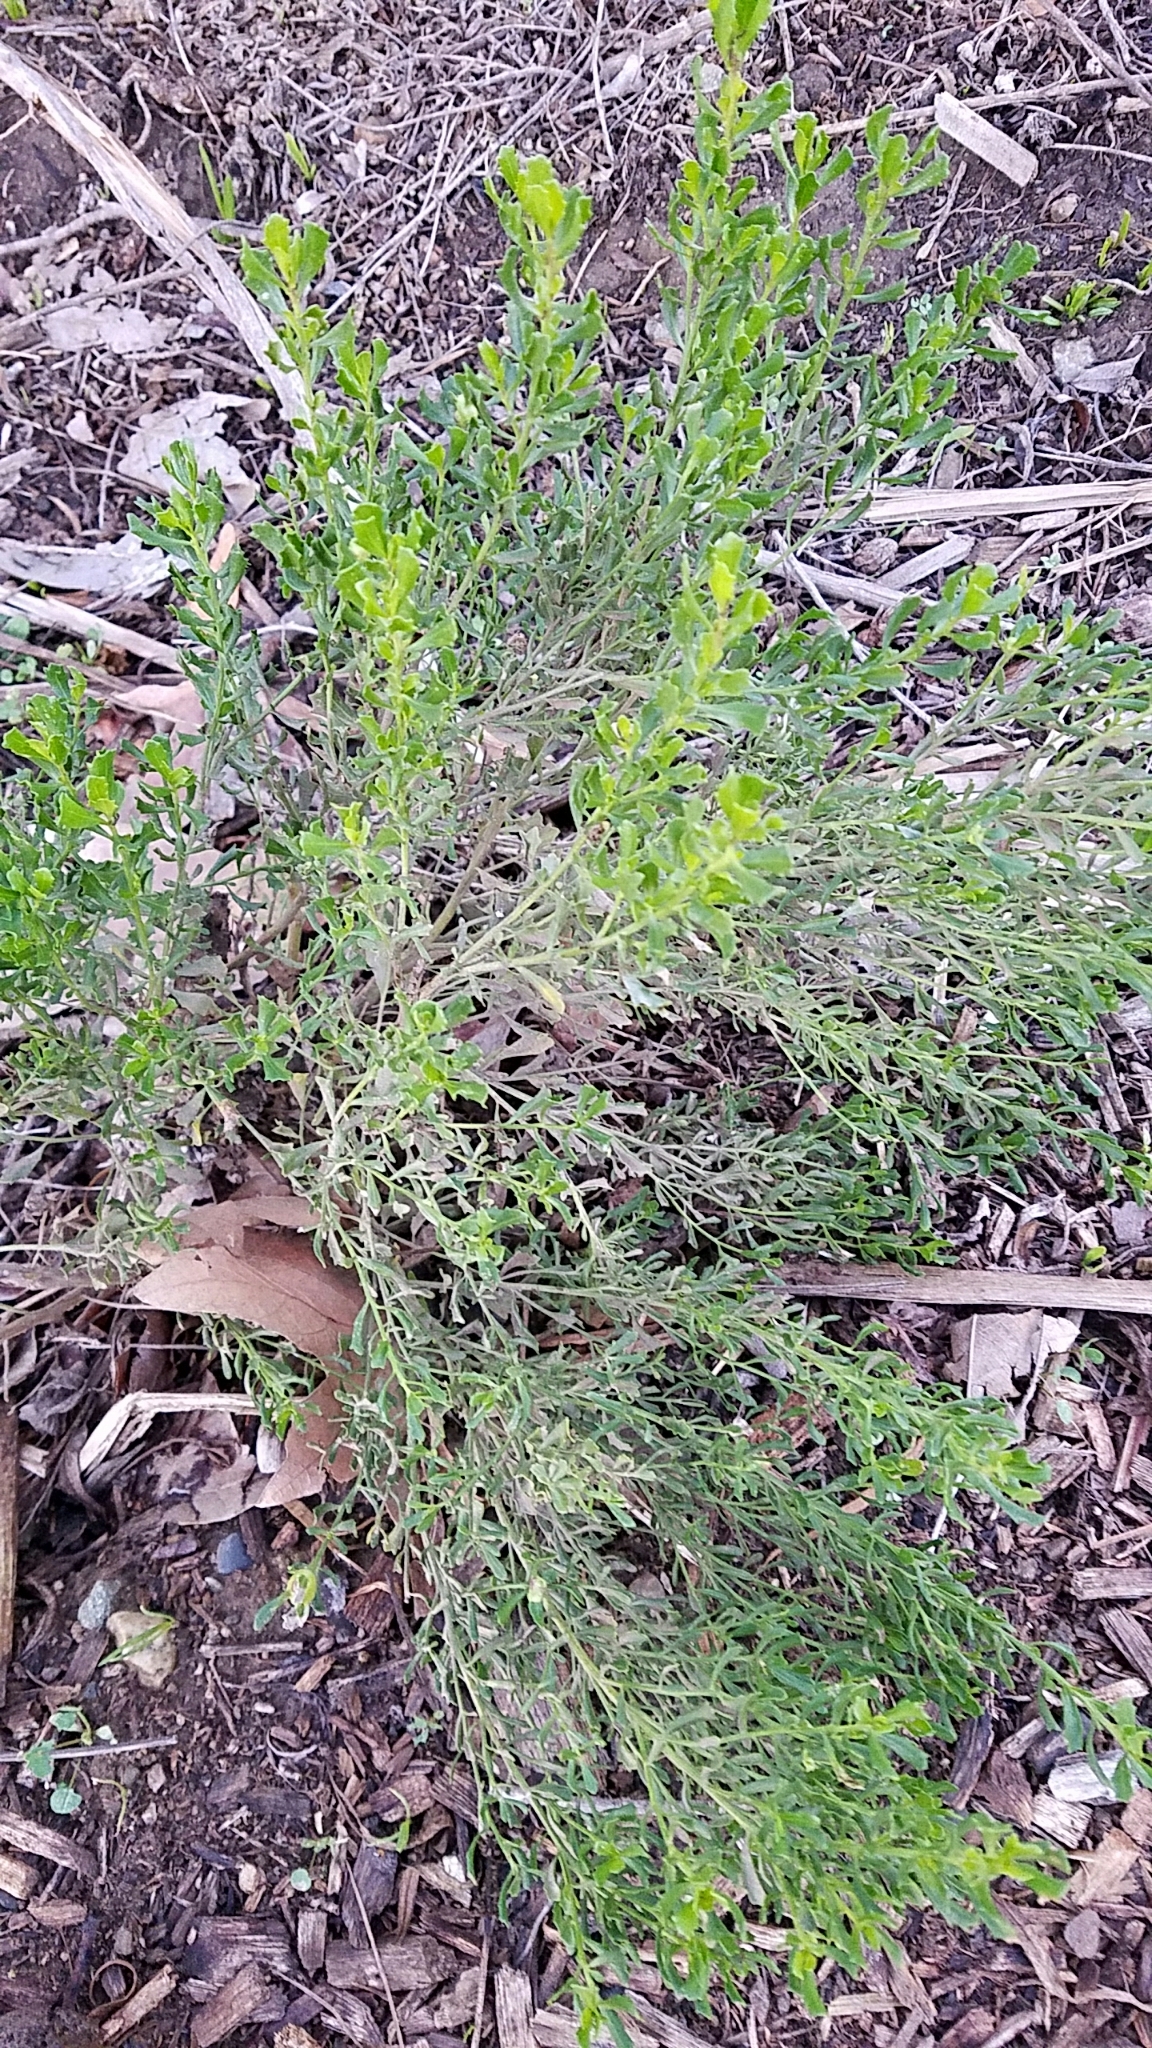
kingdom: Plantae
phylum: Tracheophyta
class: Magnoliopsida
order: Asterales
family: Asteraceae
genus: Baccharis
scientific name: Baccharis pilularis
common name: Coyotebrush
